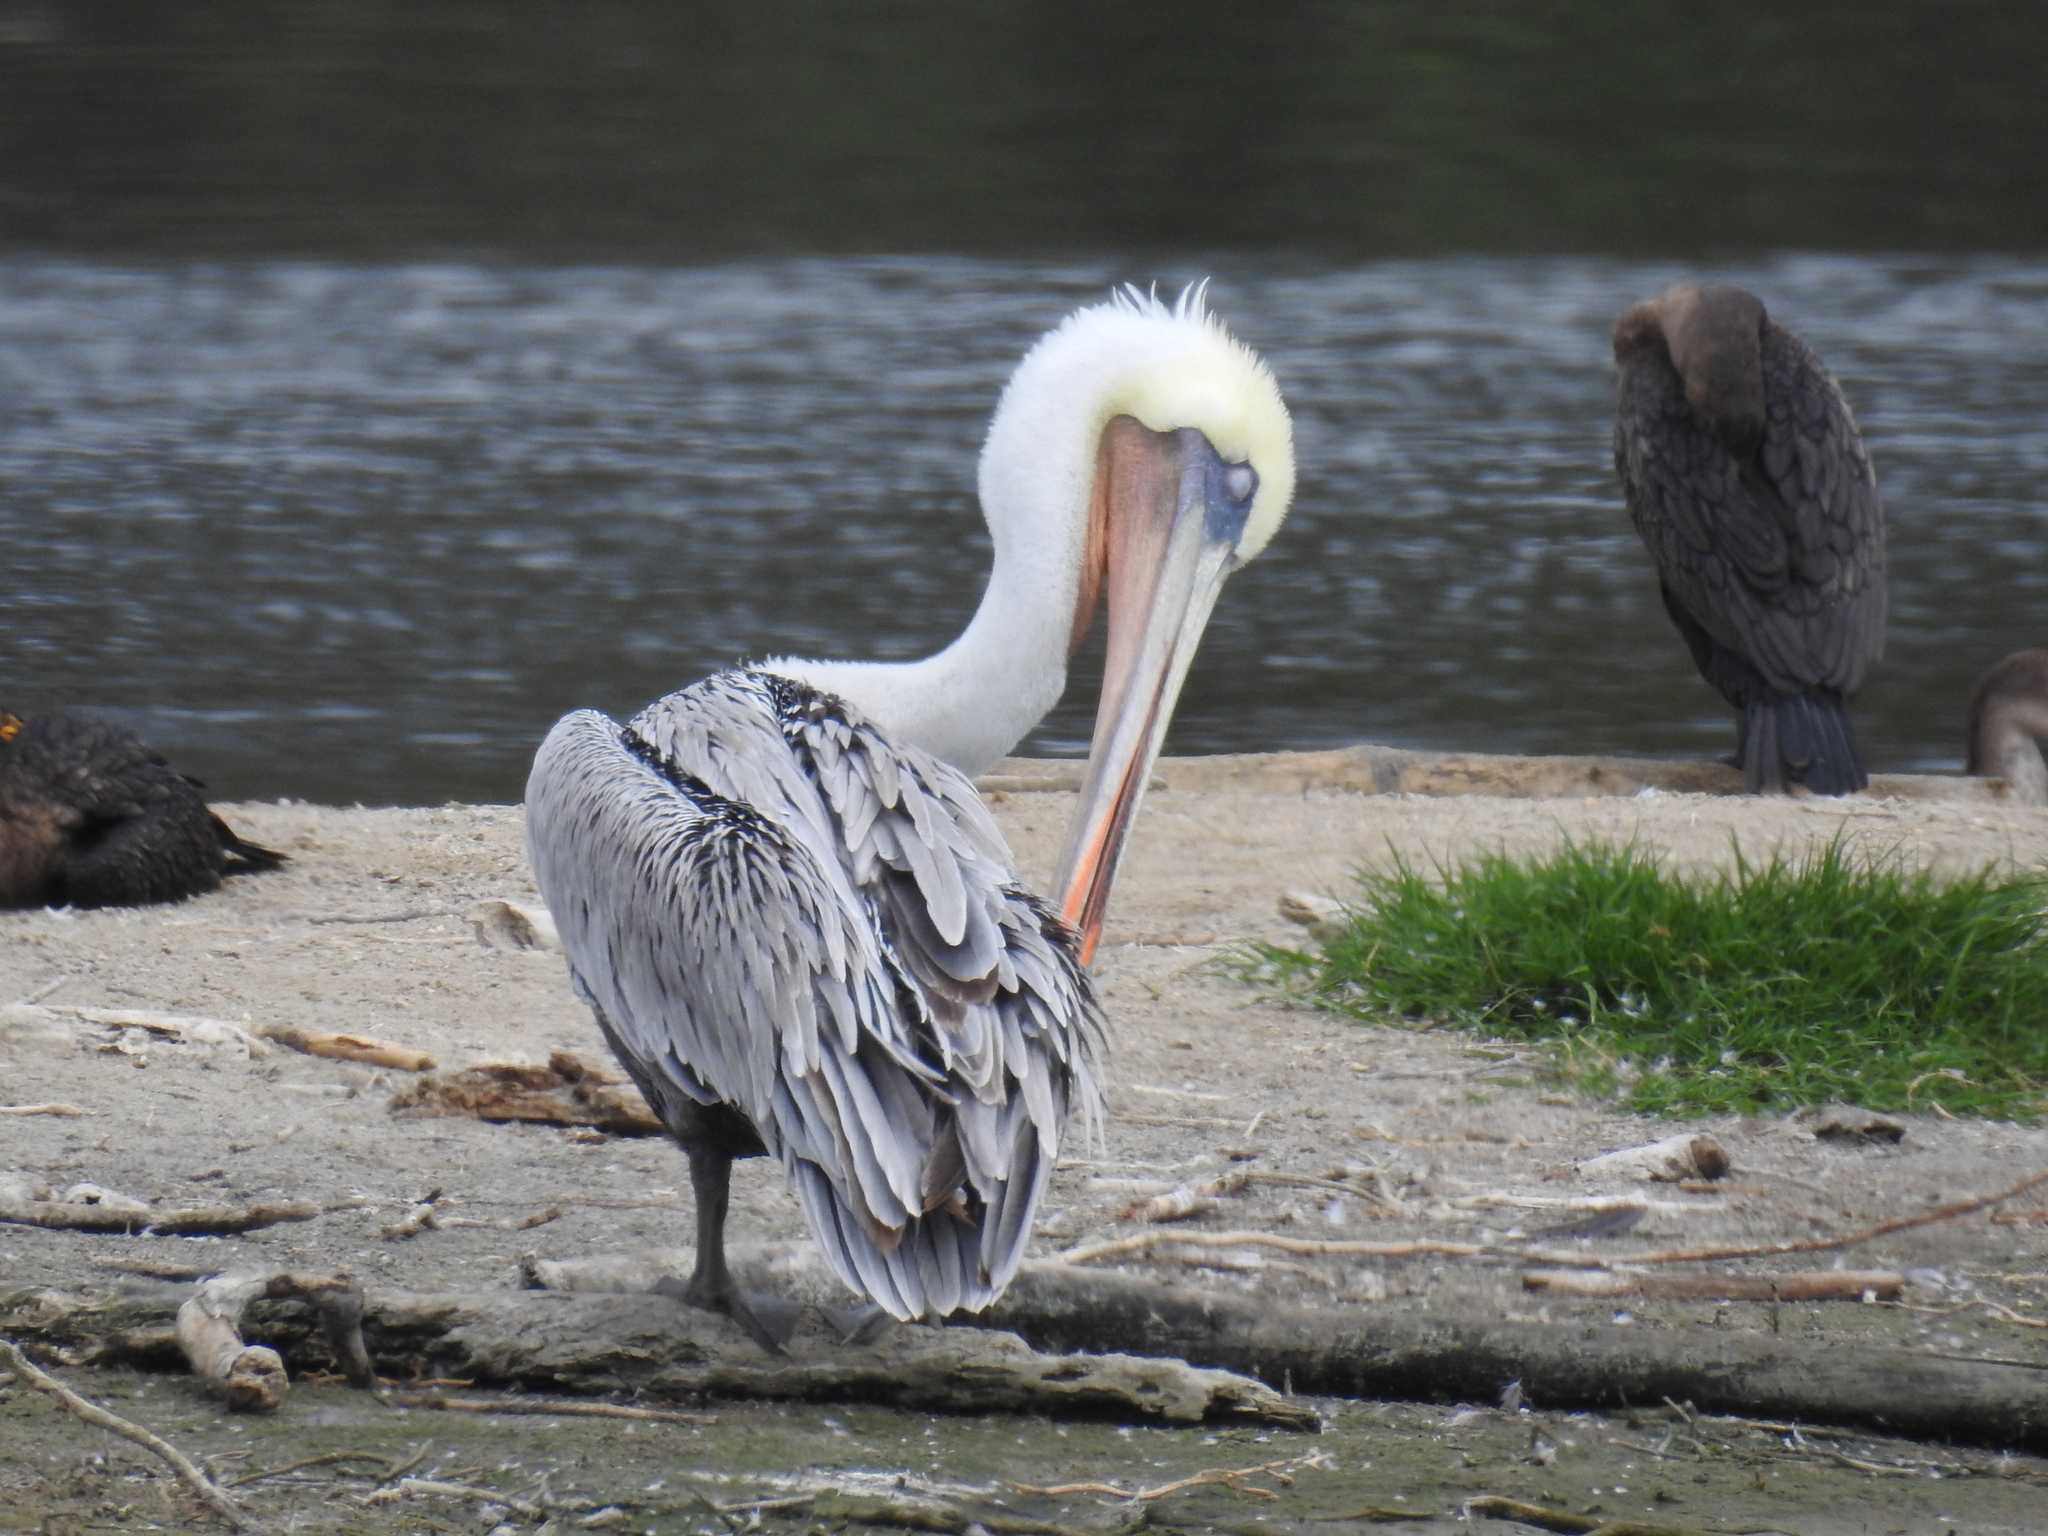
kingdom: Animalia
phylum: Chordata
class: Aves
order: Pelecaniformes
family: Pelecanidae
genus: Pelecanus
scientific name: Pelecanus occidentalis
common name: Brown pelican
